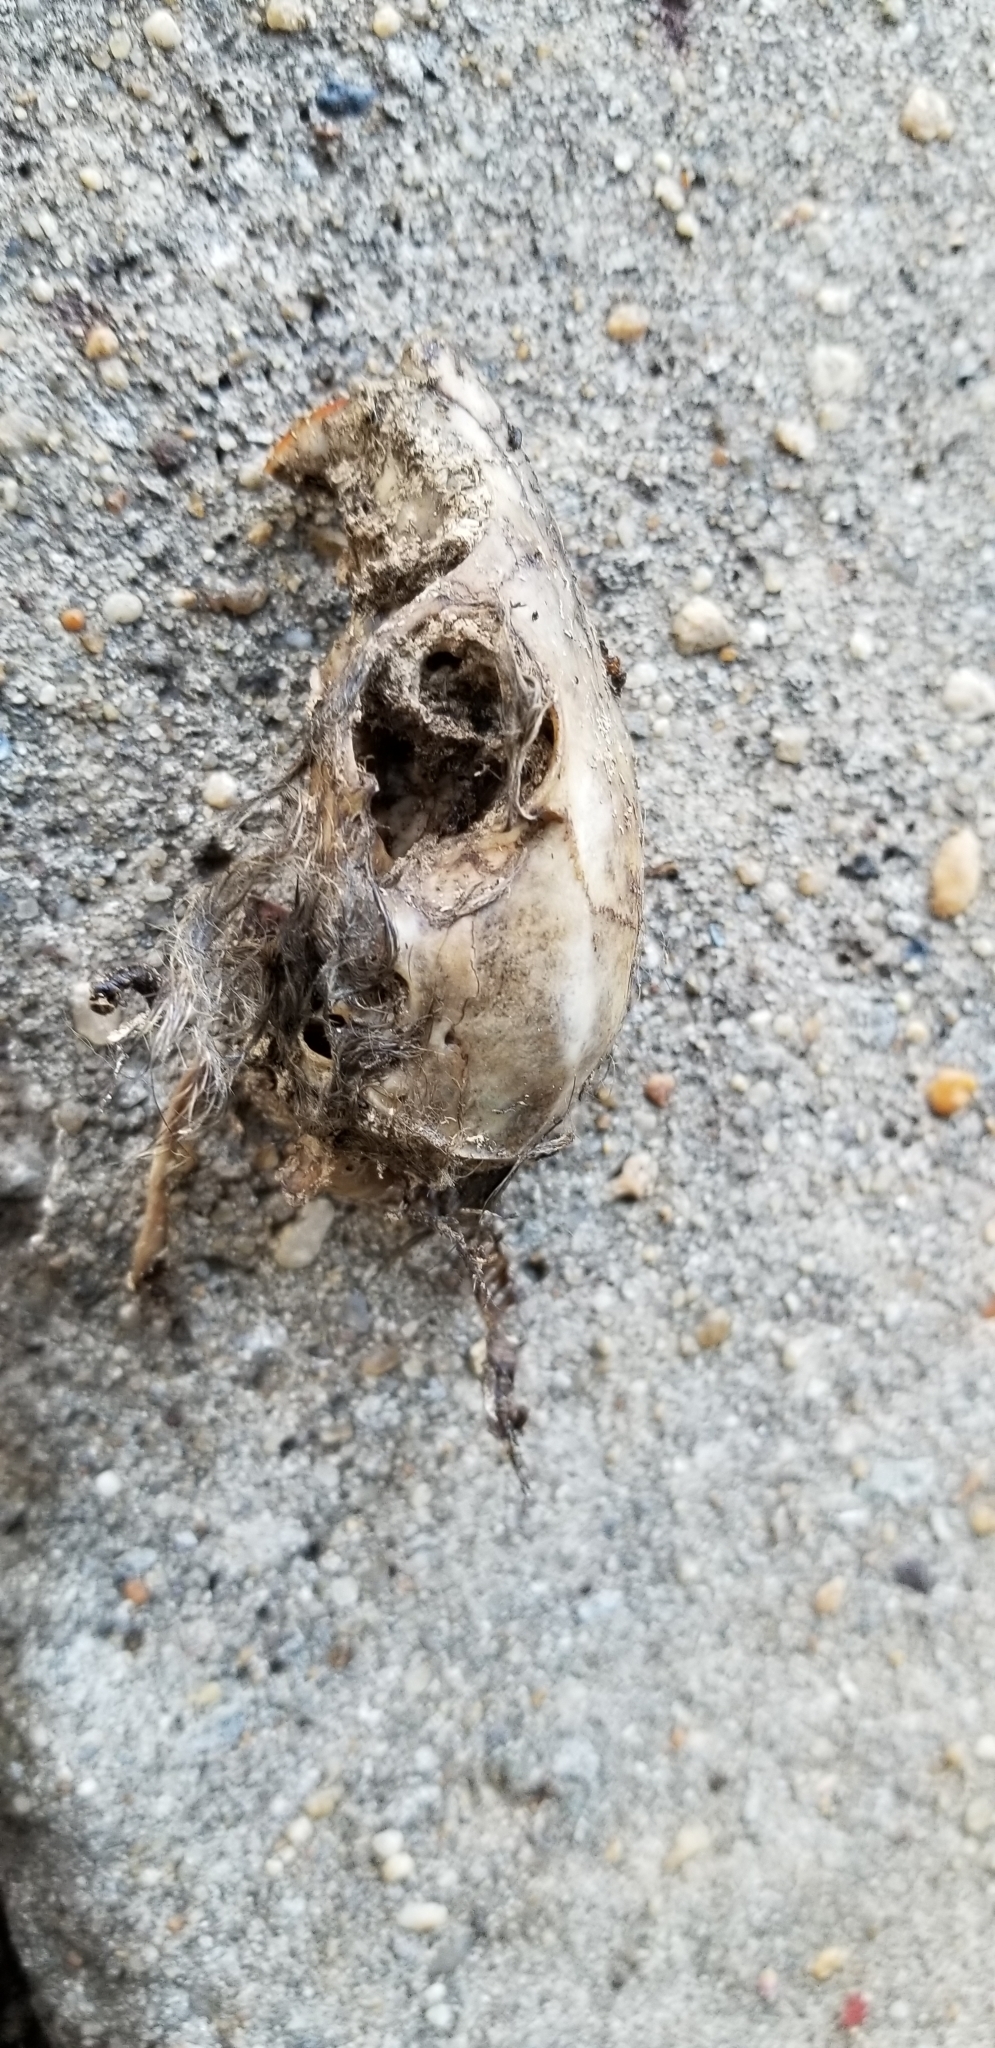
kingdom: Animalia
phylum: Chordata
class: Mammalia
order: Rodentia
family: Sciuridae
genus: Sciurus
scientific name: Sciurus carolinensis
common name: Eastern gray squirrel
